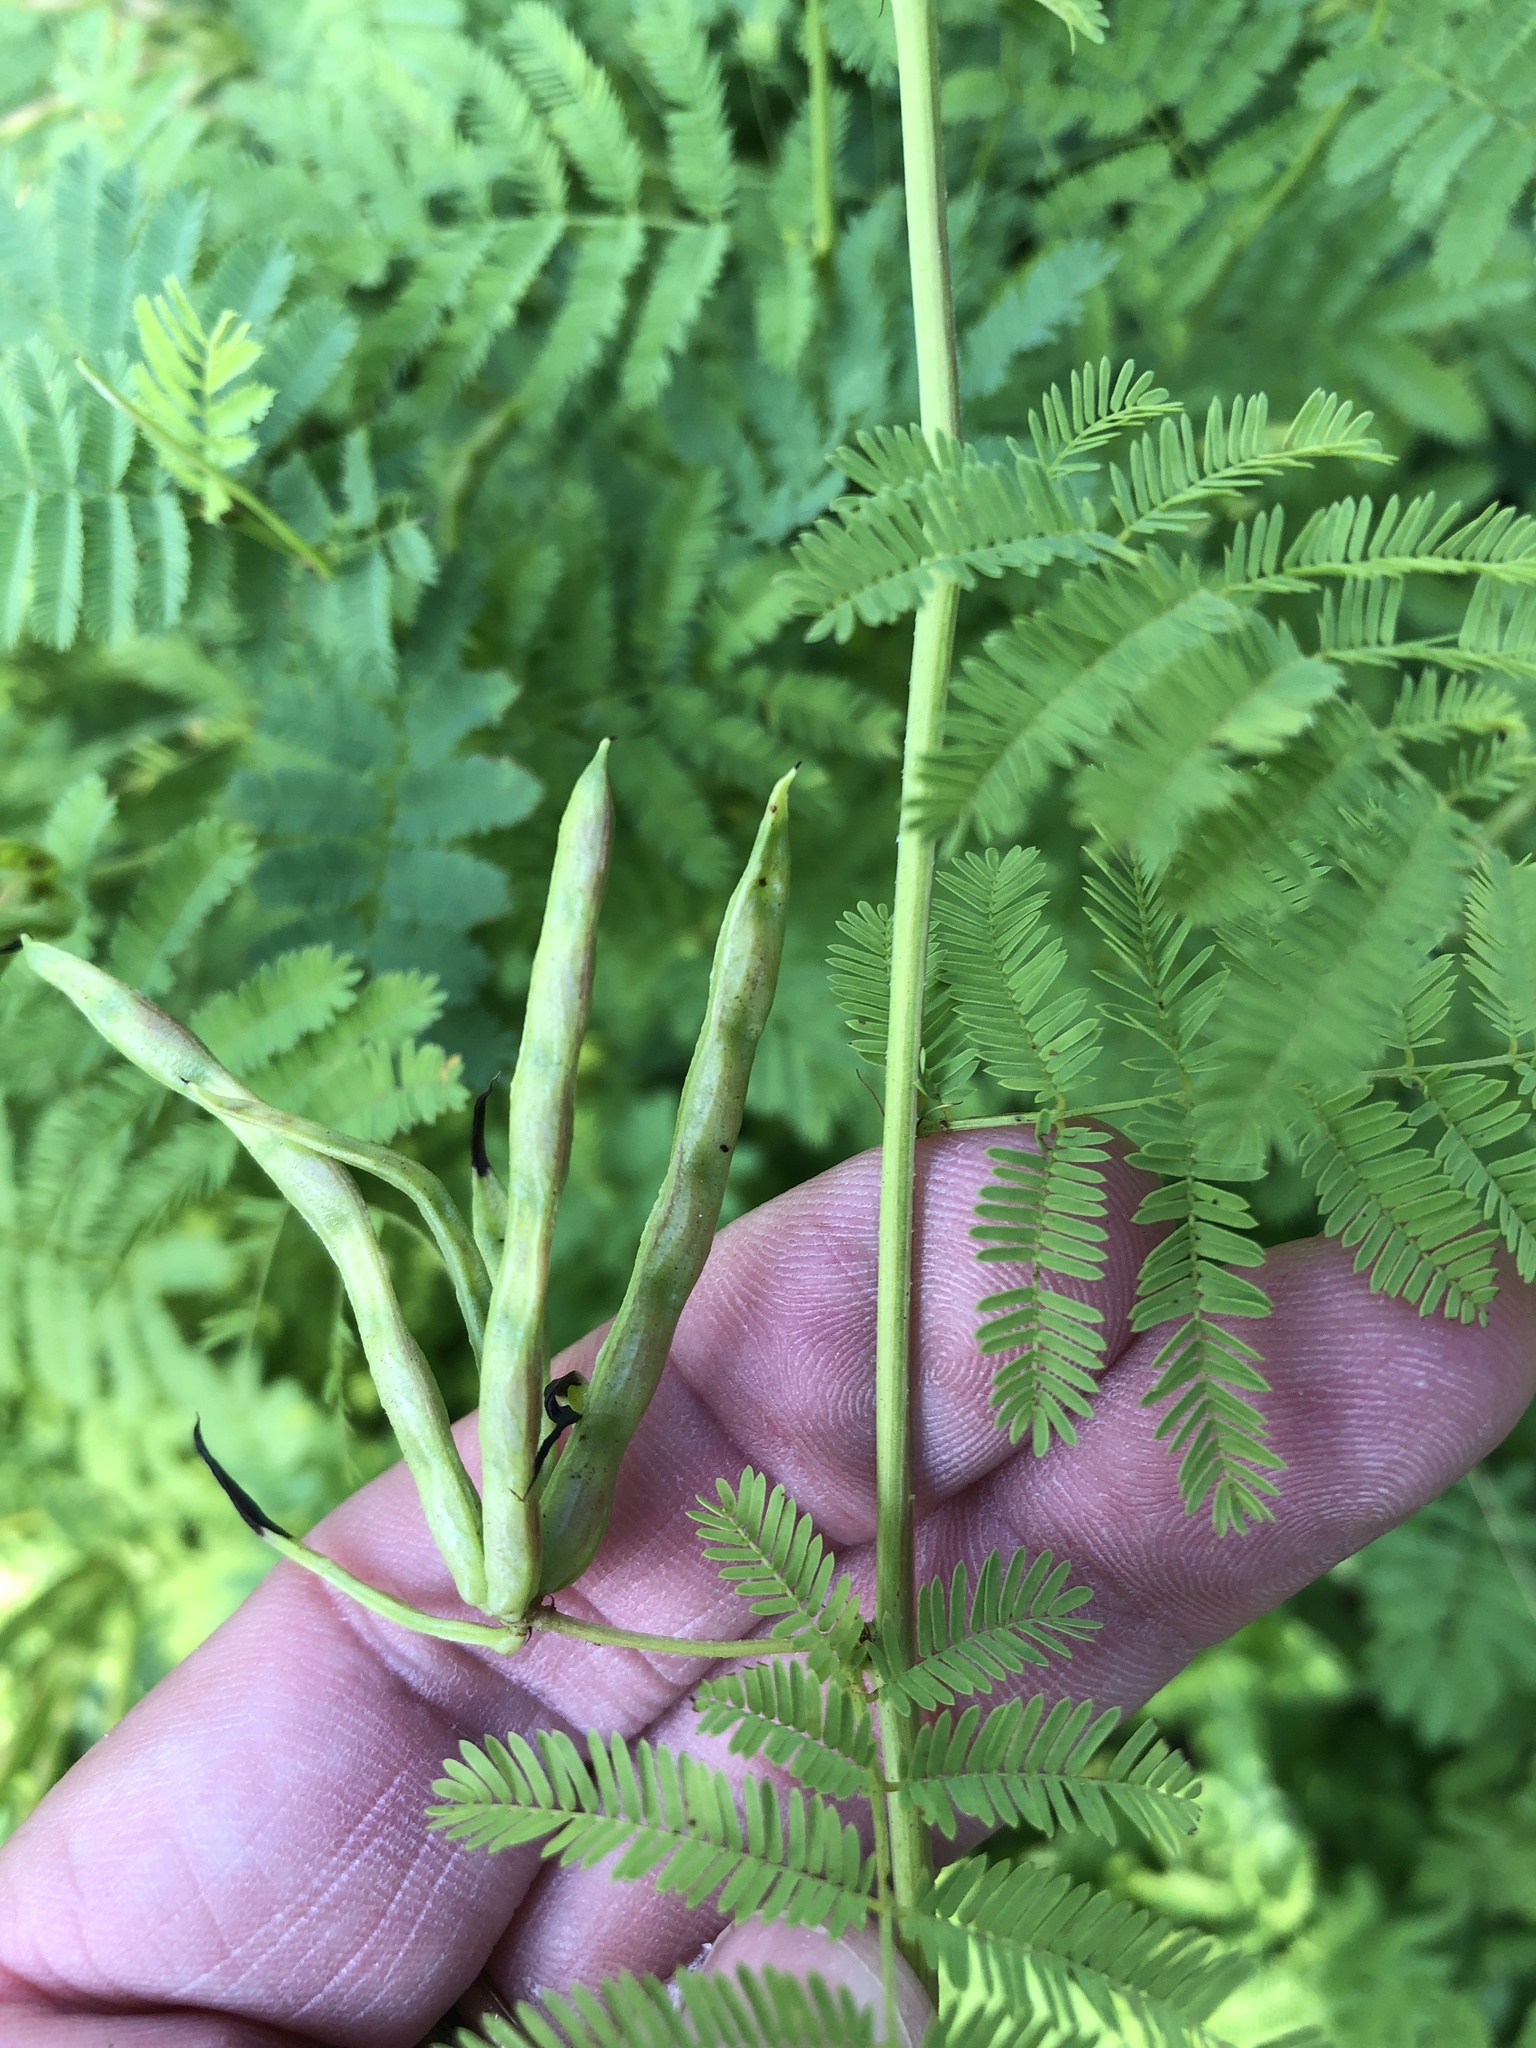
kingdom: Plantae
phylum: Tracheophyta
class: Magnoliopsida
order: Fabales
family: Fabaceae
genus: Desmanthus
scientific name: Desmanthus leptolobus
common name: Prairie-mimosa
